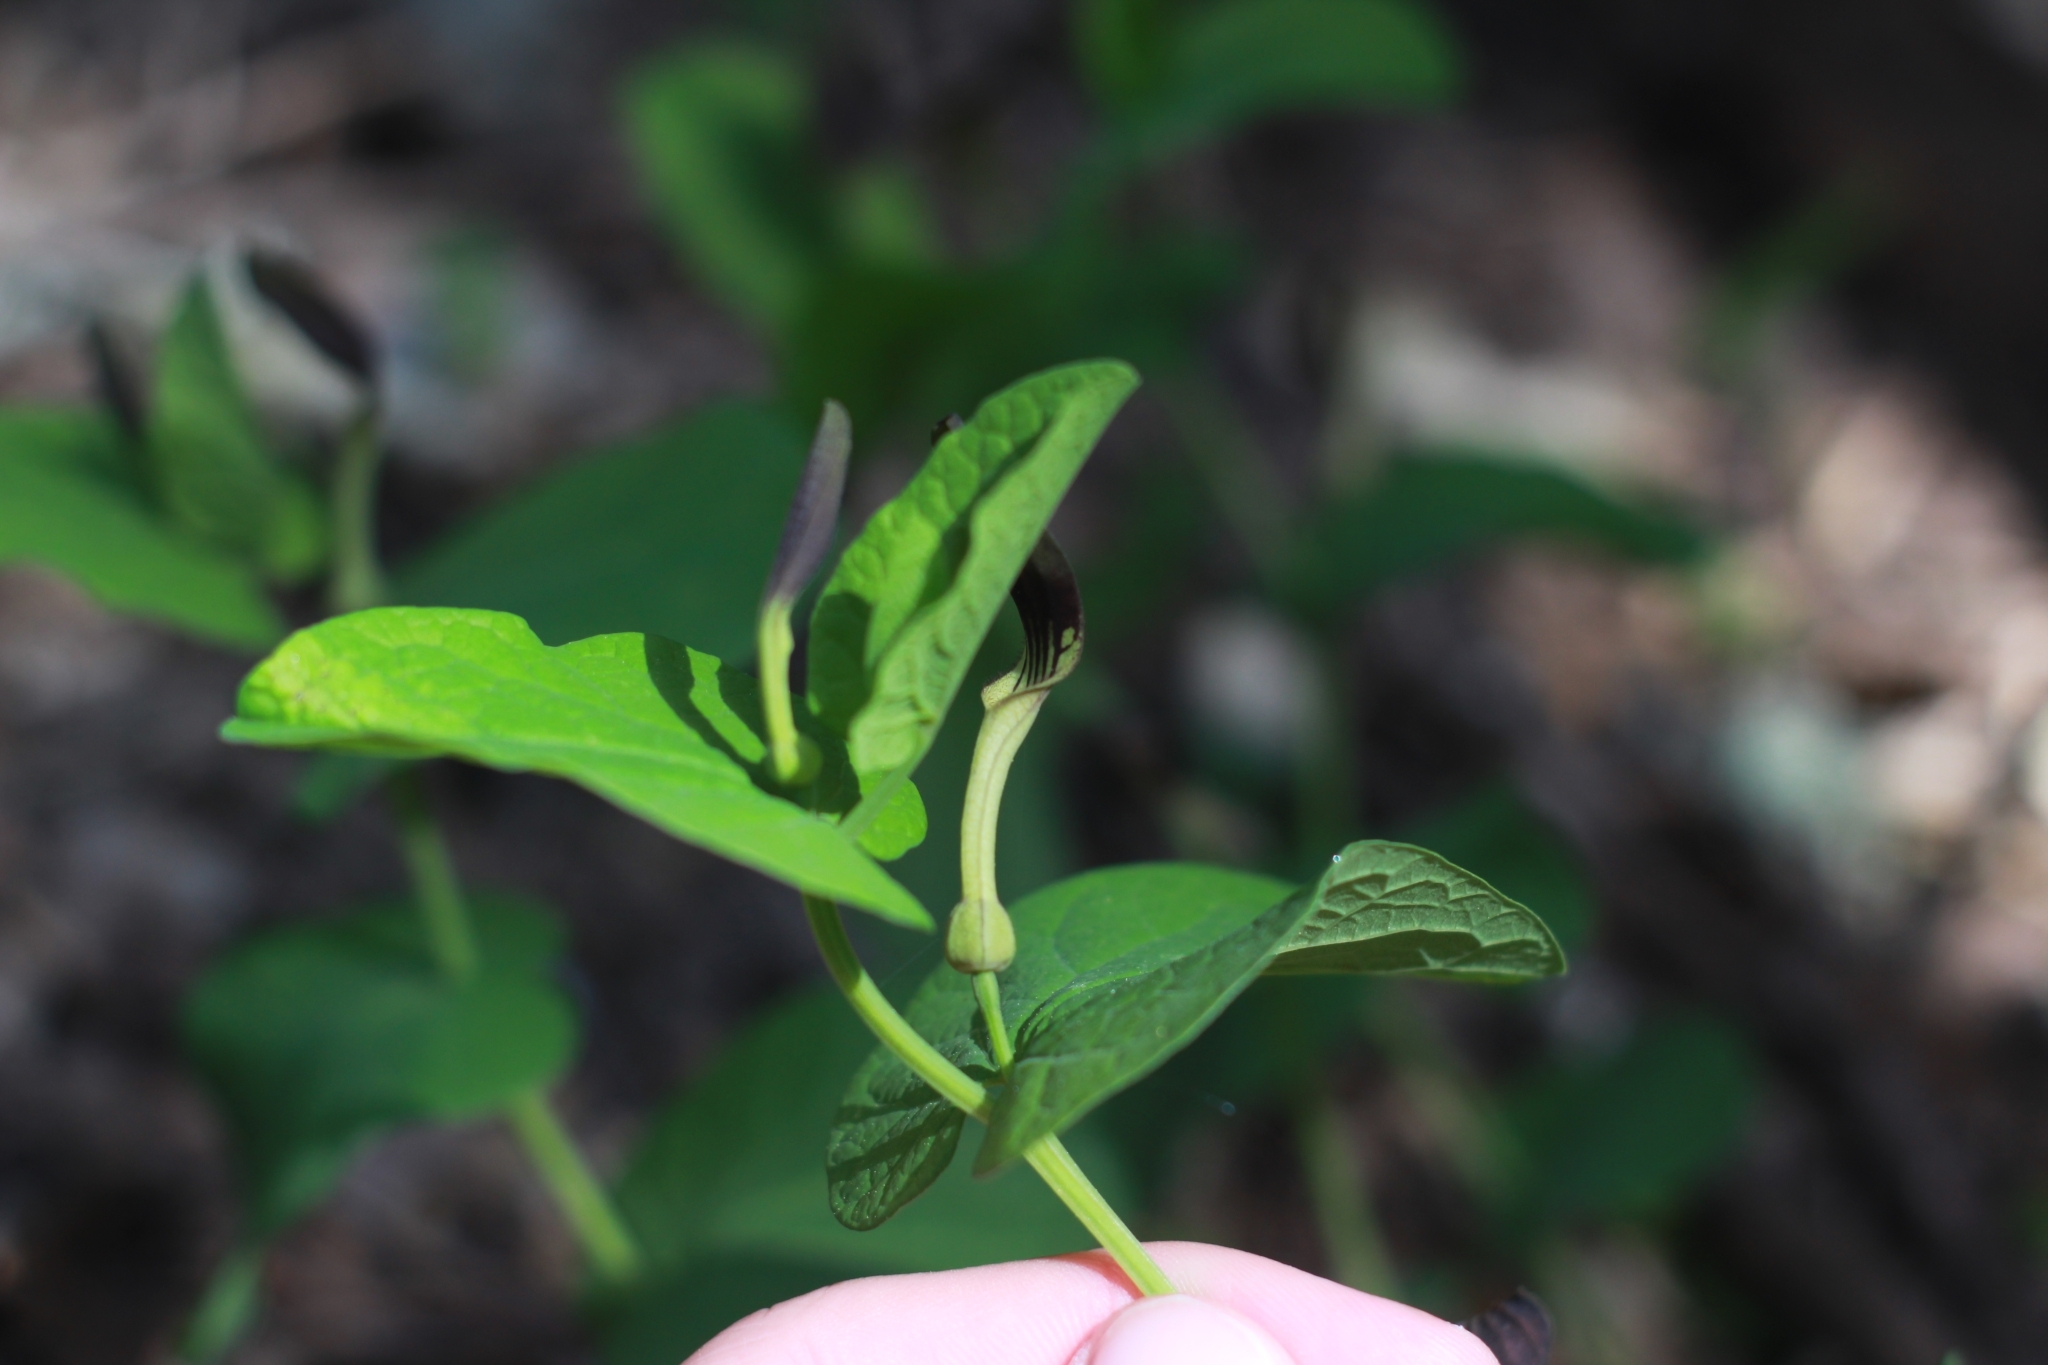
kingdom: Plantae
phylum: Tracheophyta
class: Magnoliopsida
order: Piperales
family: Aristolochiaceae
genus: Aristolochia
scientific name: Aristolochia rotunda
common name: Smearwort
